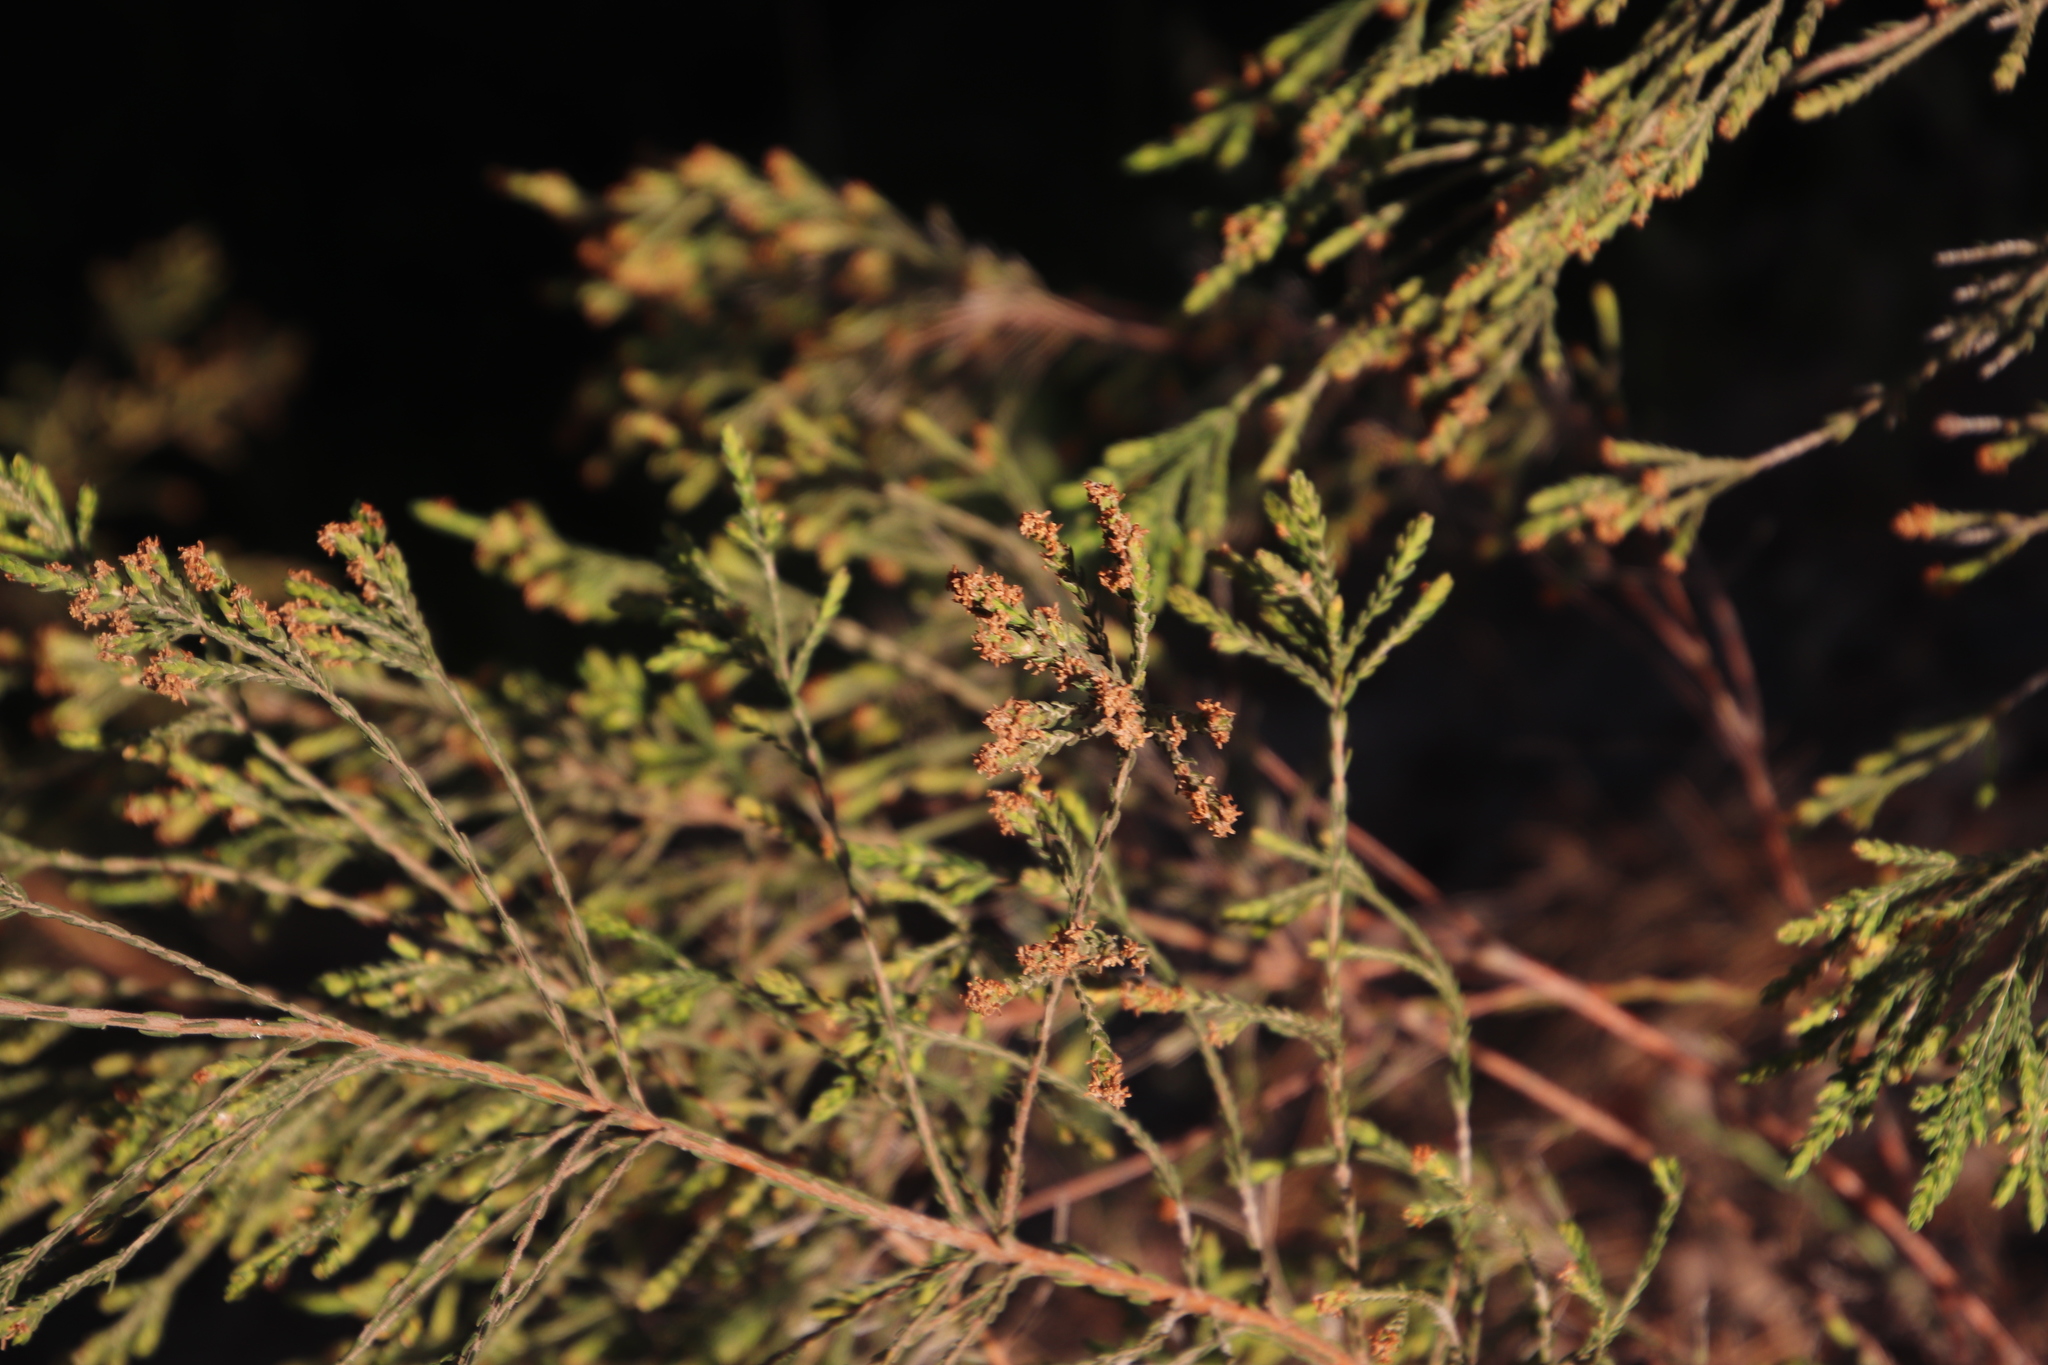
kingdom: Plantae
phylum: Tracheophyta
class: Magnoliopsida
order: Malvales
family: Thymelaeaceae
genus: Passerina
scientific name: Passerina corymbosa
